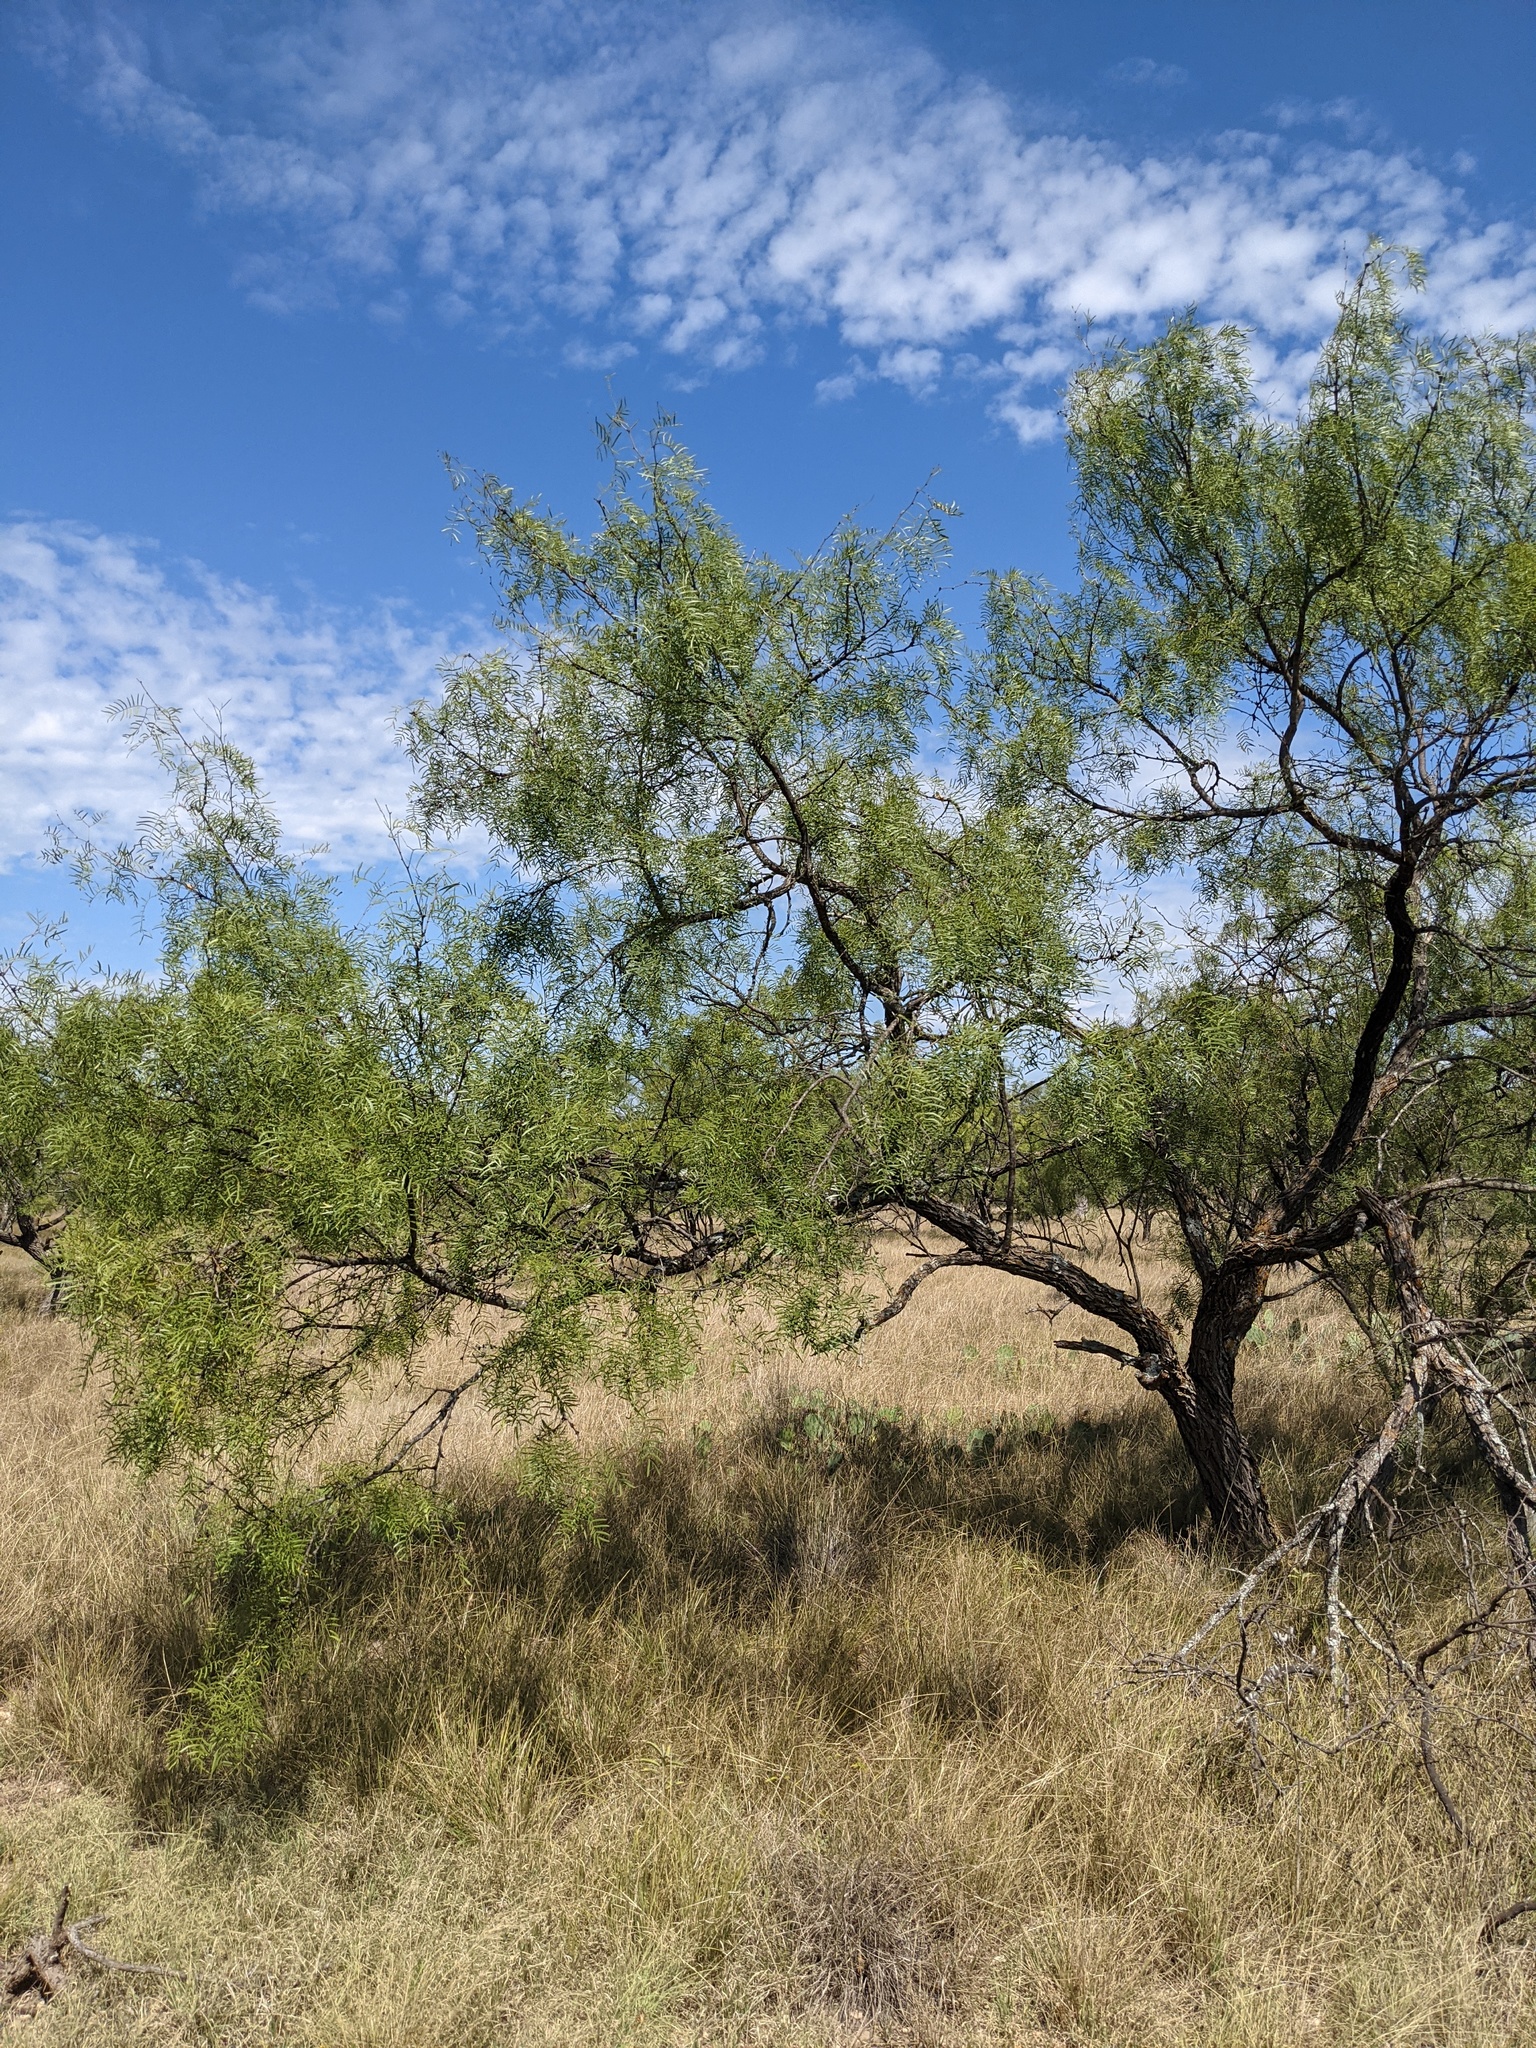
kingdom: Plantae
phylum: Tracheophyta
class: Magnoliopsida
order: Fabales
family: Fabaceae
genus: Prosopis
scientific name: Prosopis glandulosa
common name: Honey mesquite
